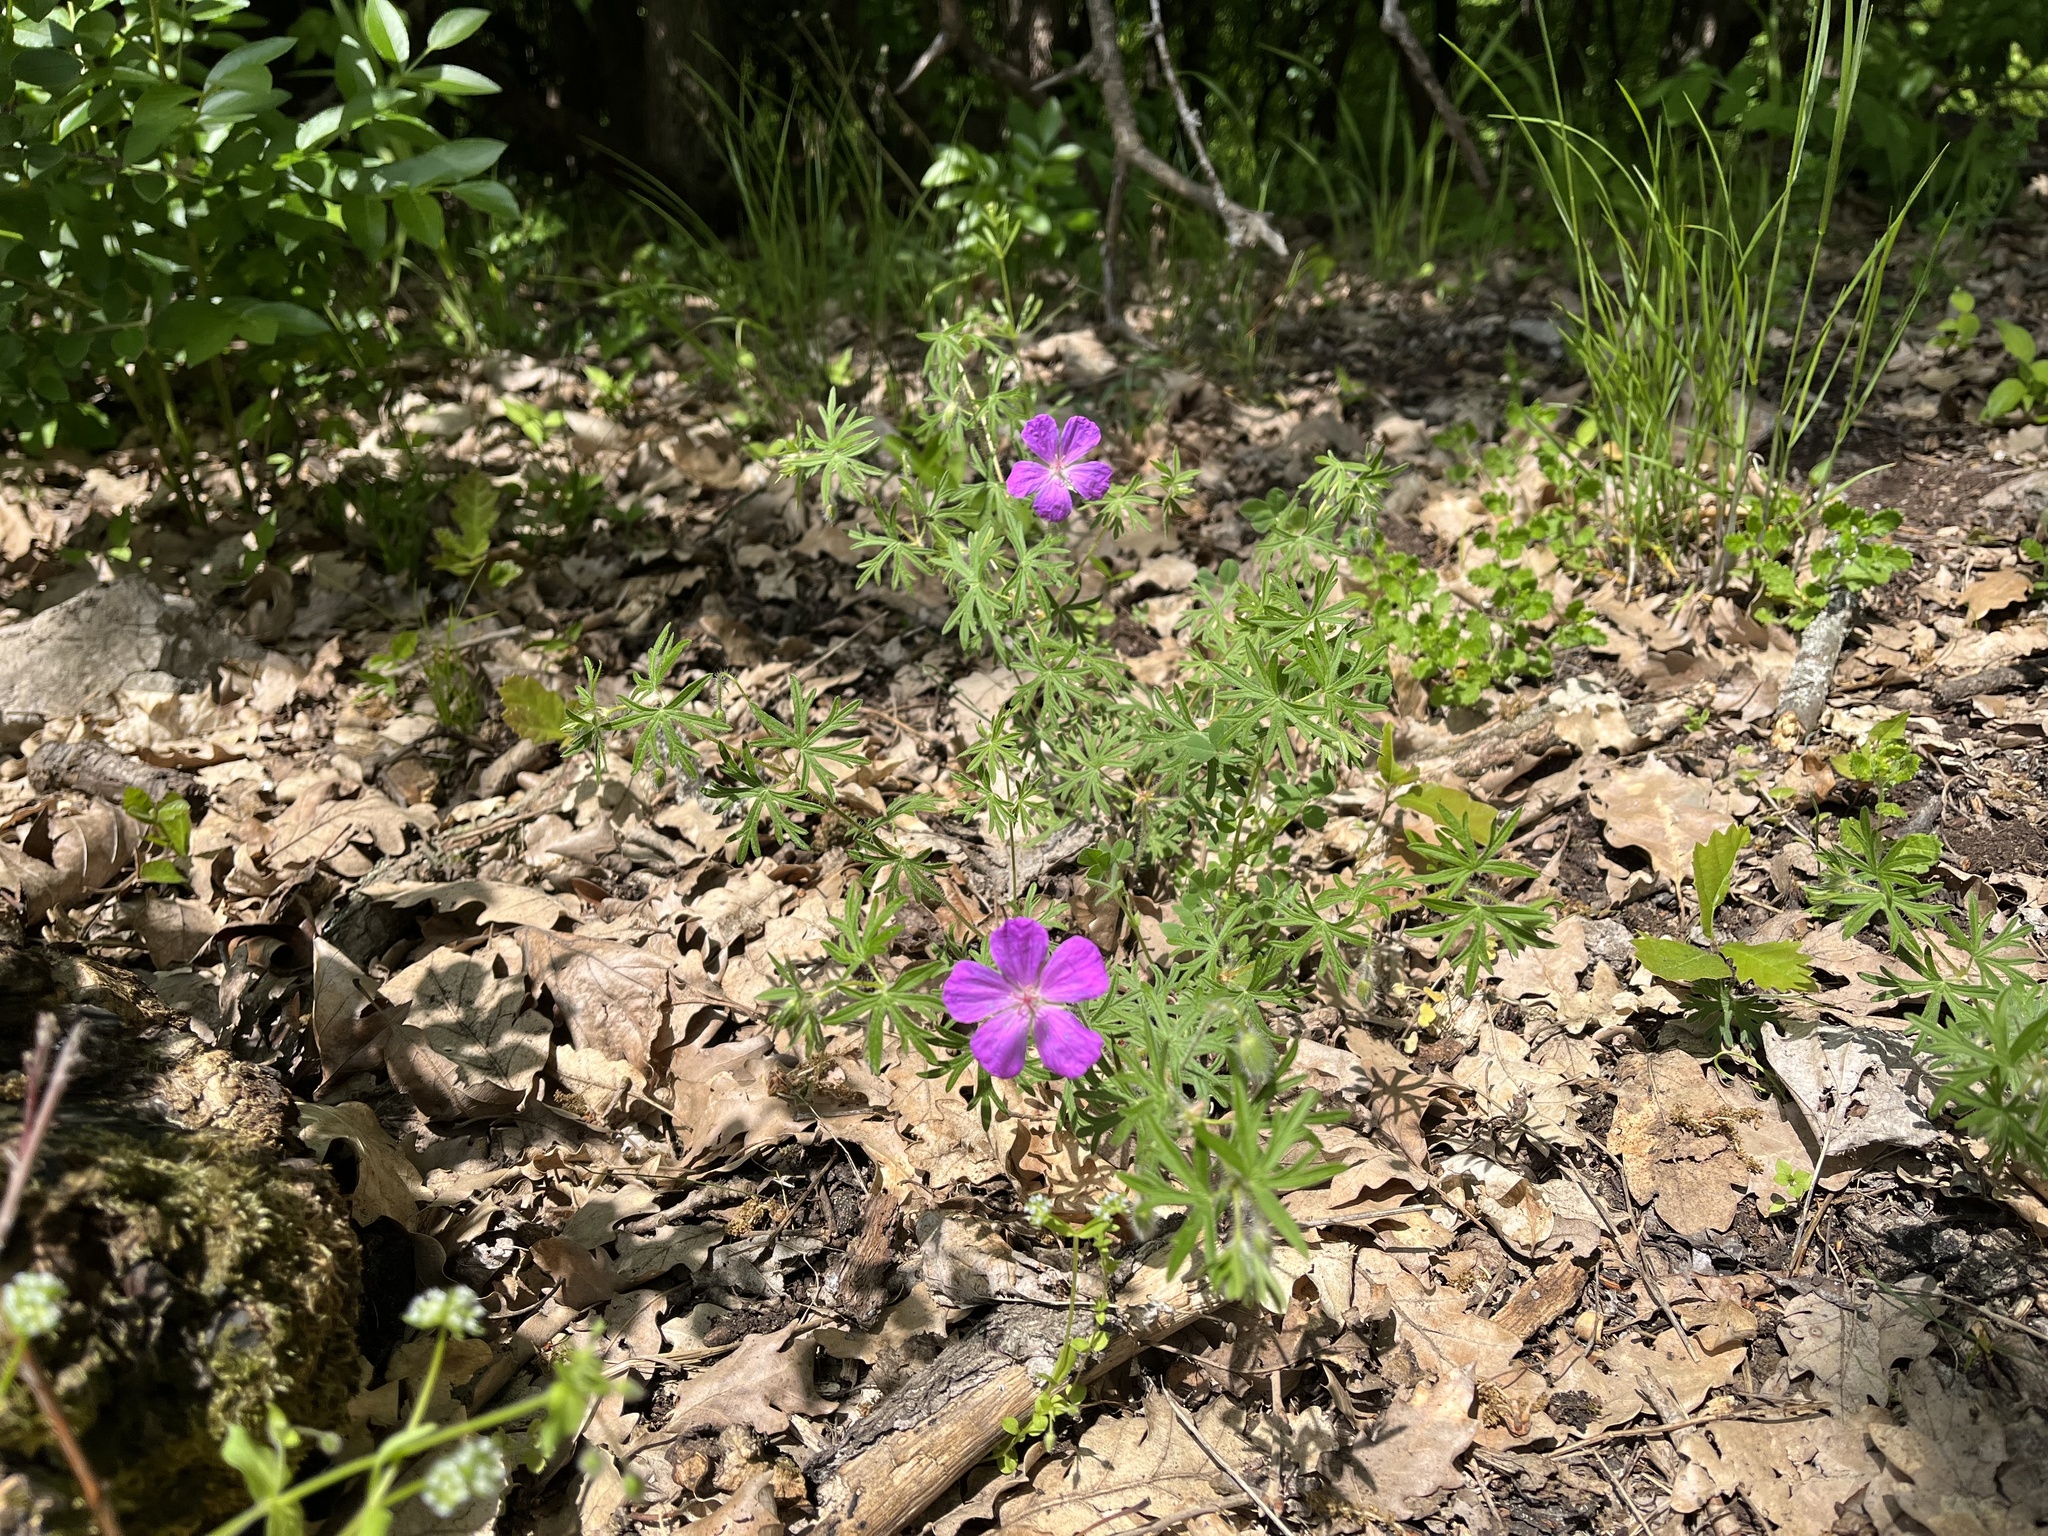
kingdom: Plantae
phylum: Tracheophyta
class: Magnoliopsida
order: Geraniales
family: Geraniaceae
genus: Geranium
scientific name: Geranium sanguineum
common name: Bloody crane's-bill
